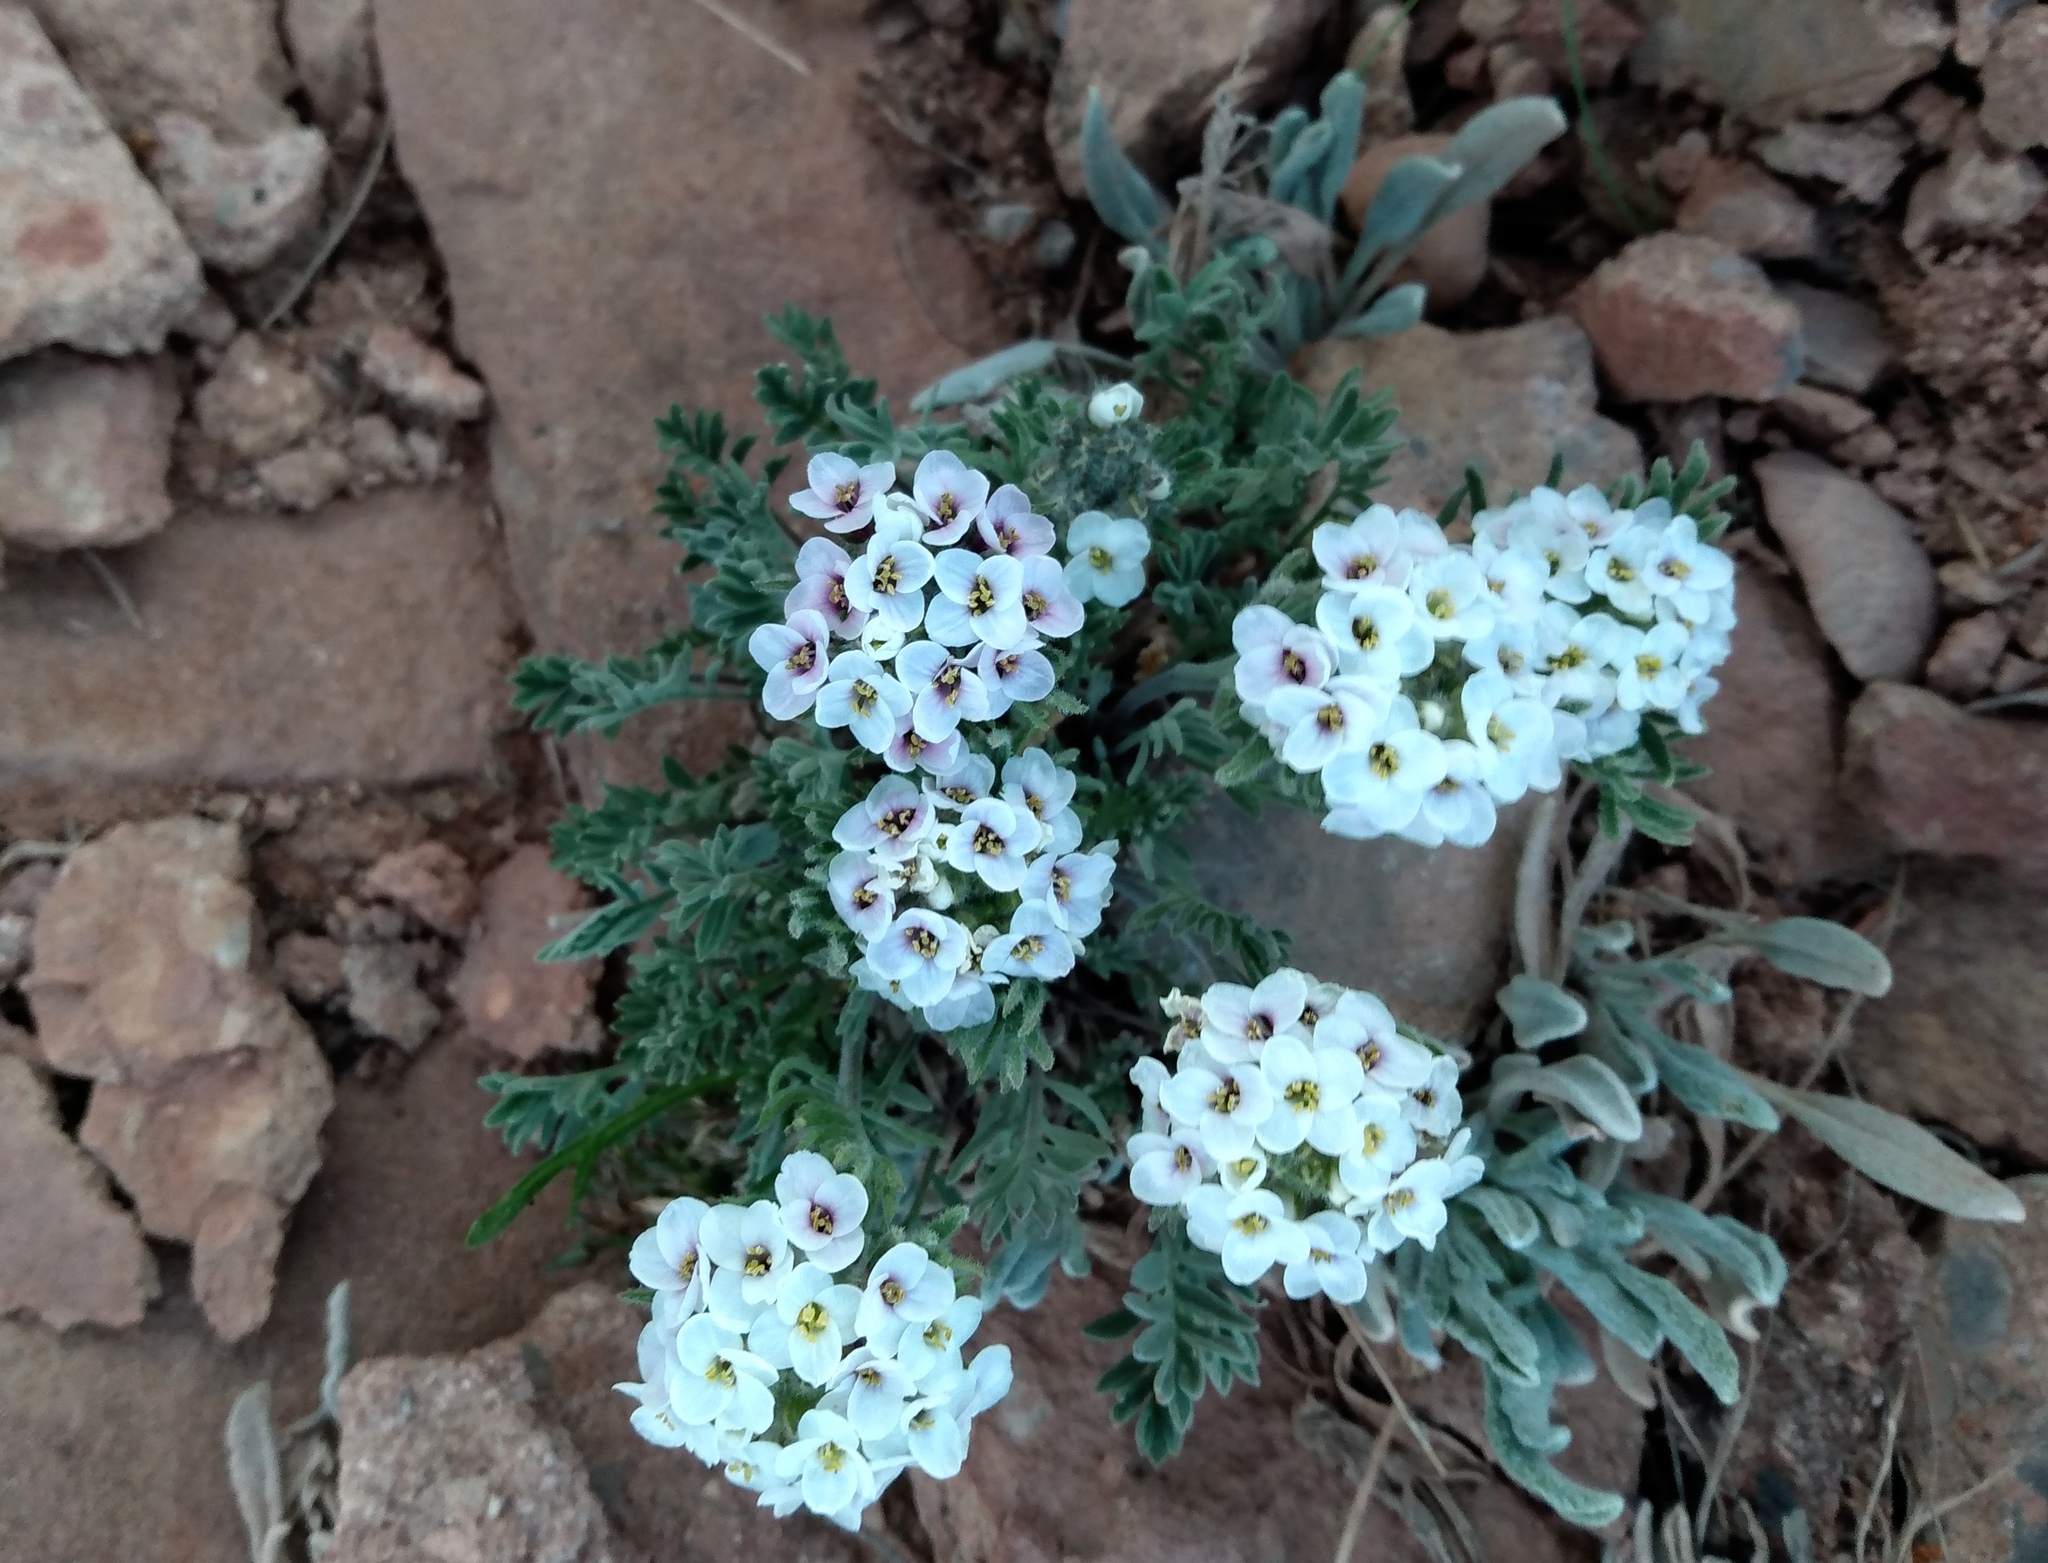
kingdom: Plantae
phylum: Tracheophyta
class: Magnoliopsida
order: Brassicales
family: Brassicaceae
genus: Smelowskia
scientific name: Smelowskia americana
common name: American false candytuft
